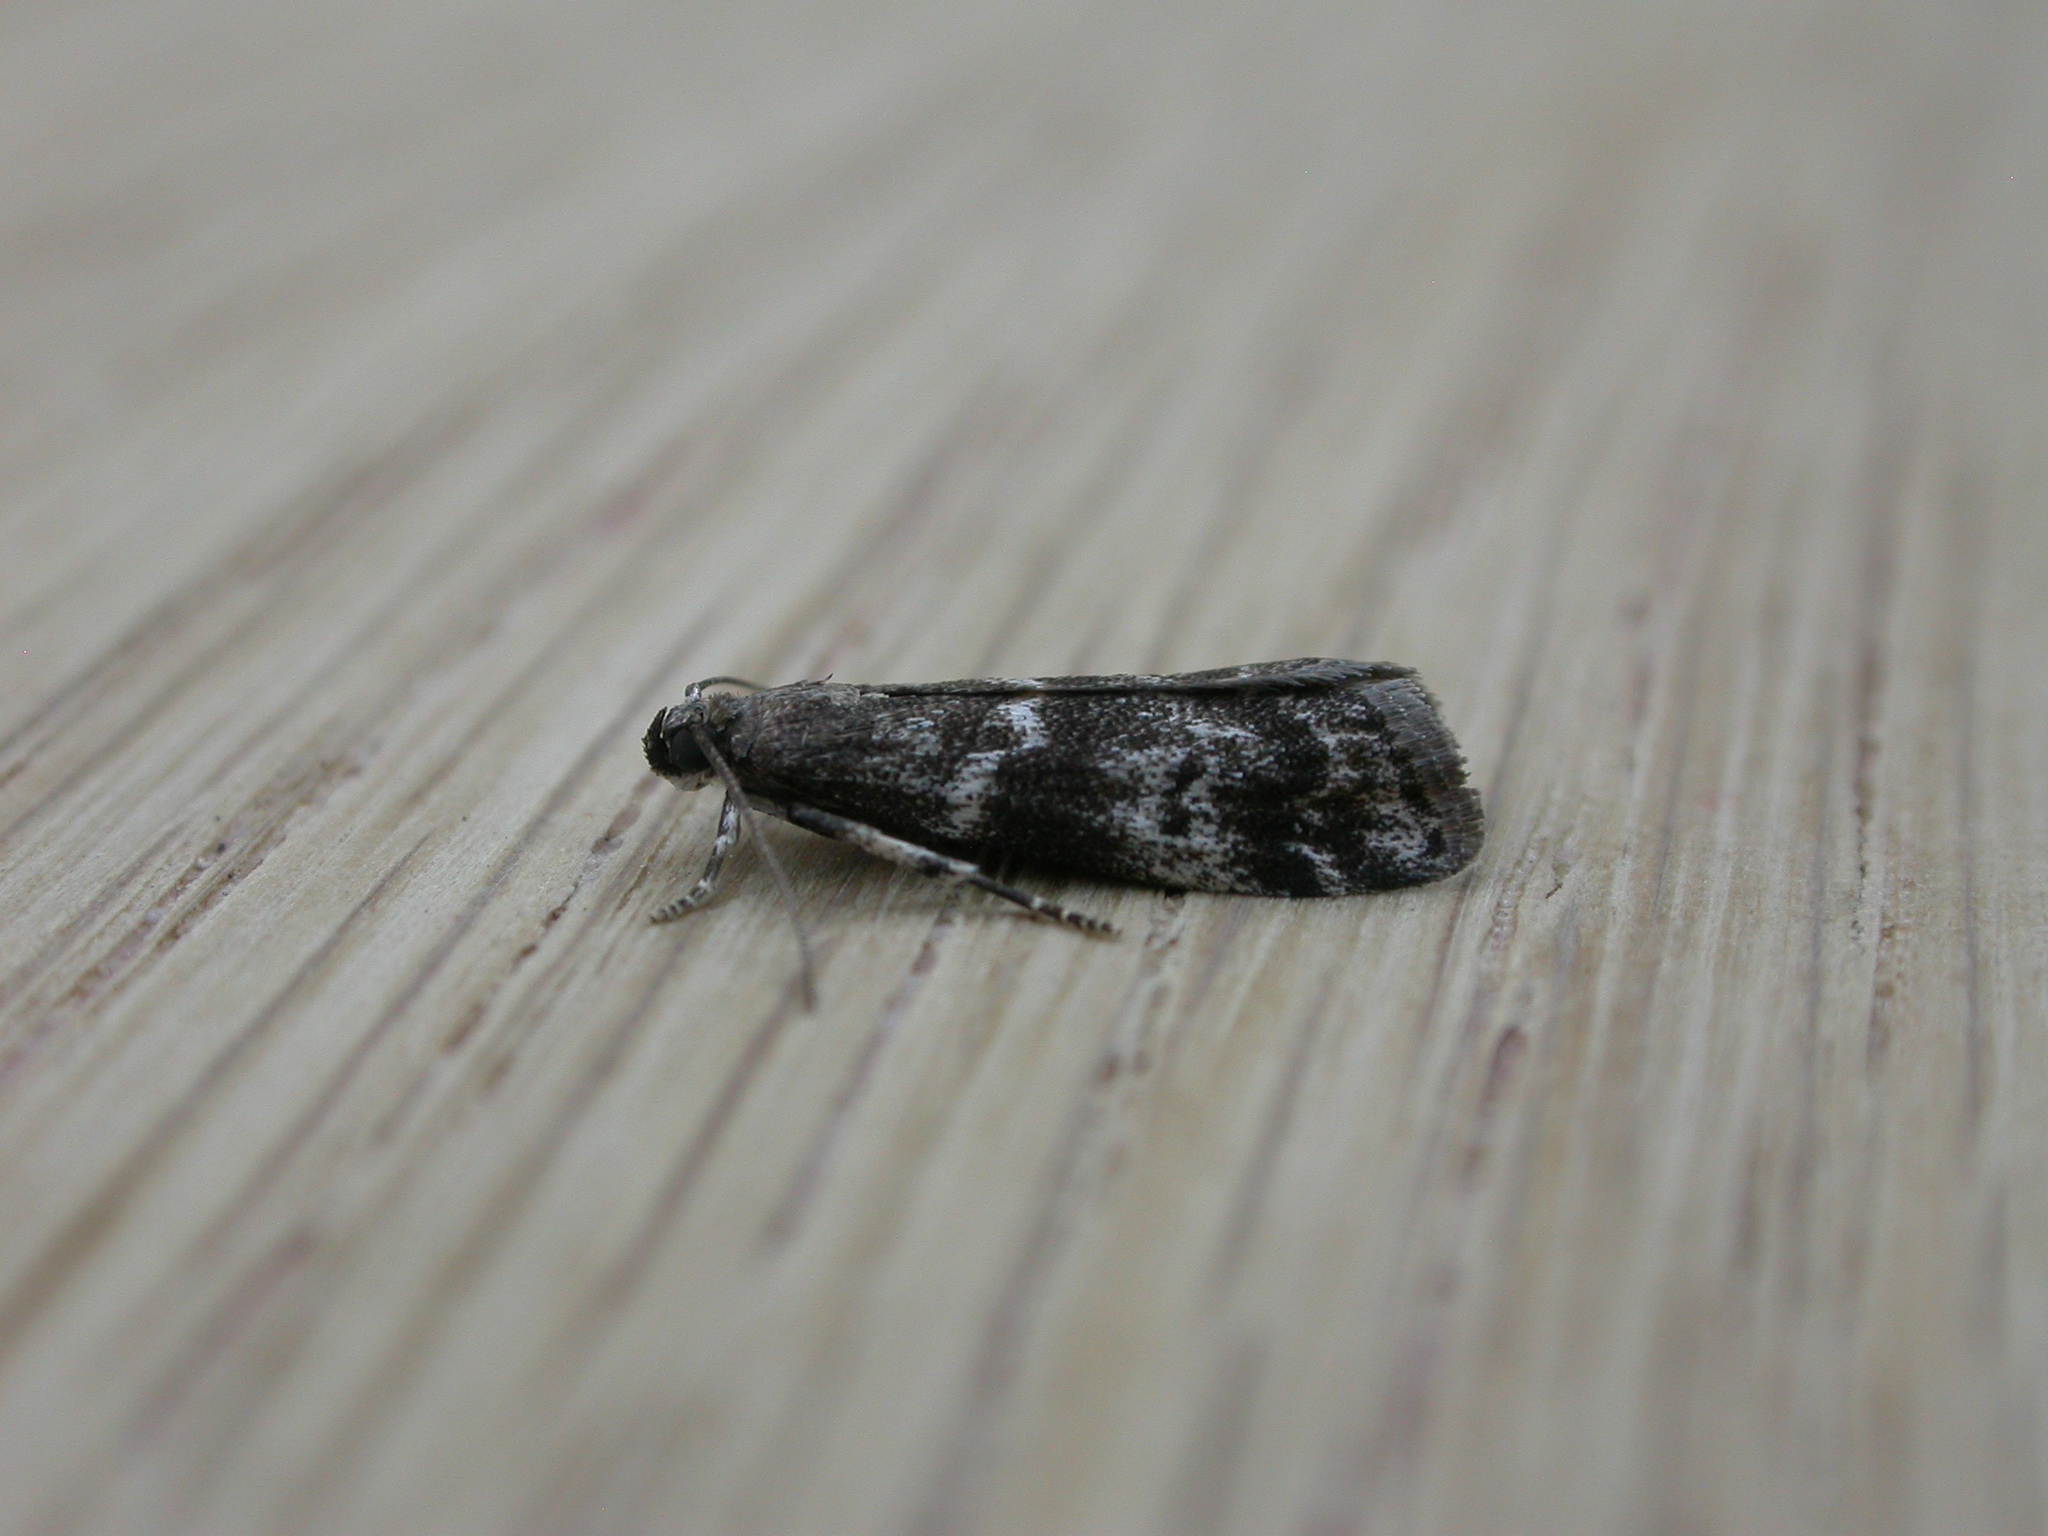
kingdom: Animalia
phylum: Arthropoda
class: Insecta
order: Lepidoptera
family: Pyralidae
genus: Assara
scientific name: Assara terebrella
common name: Dark spruce knot-horn
